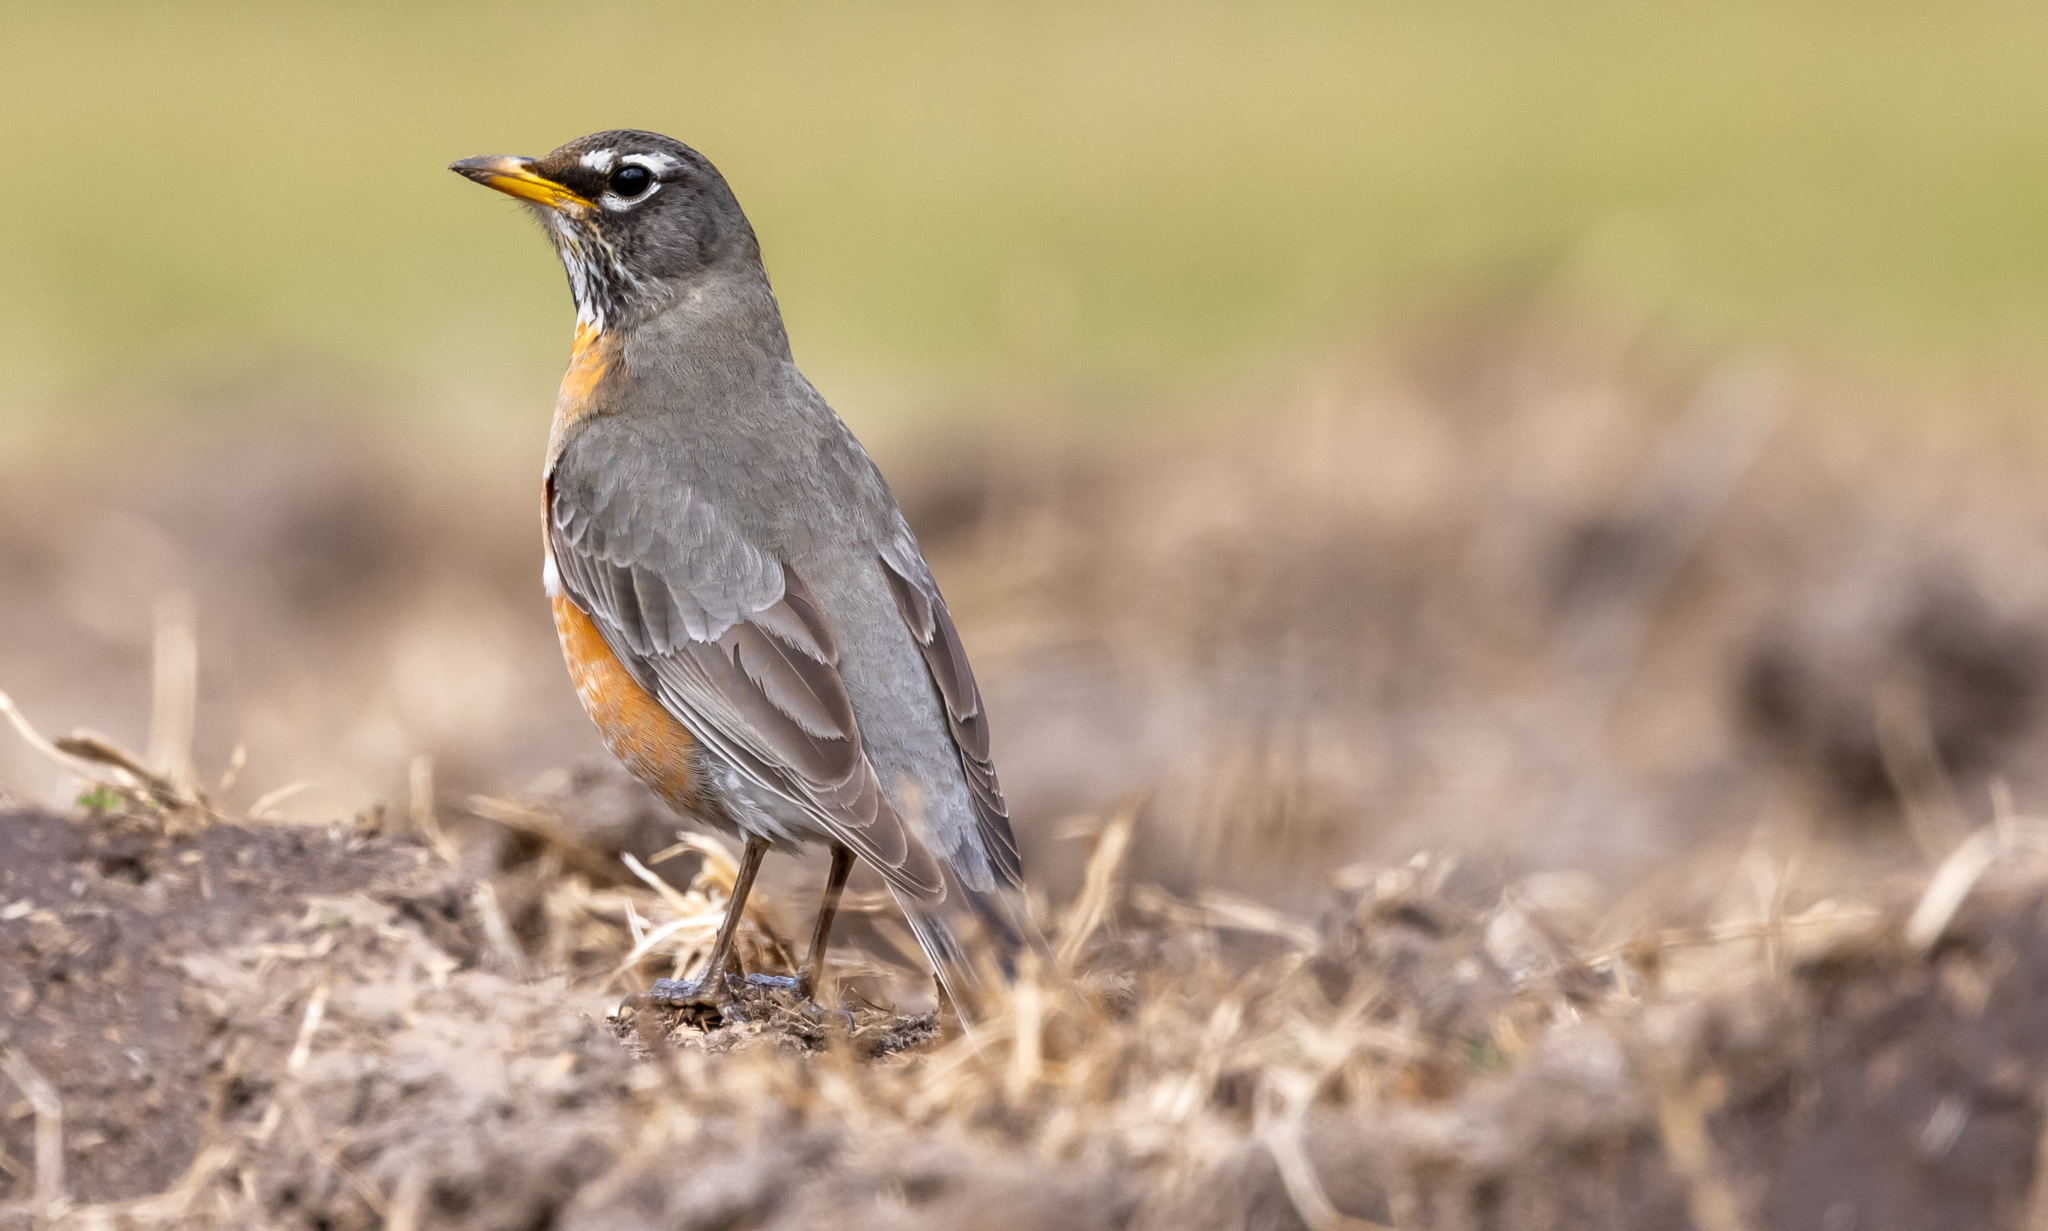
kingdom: Animalia
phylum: Chordata
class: Aves
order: Passeriformes
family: Turdidae
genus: Turdus
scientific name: Turdus migratorius
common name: American robin
